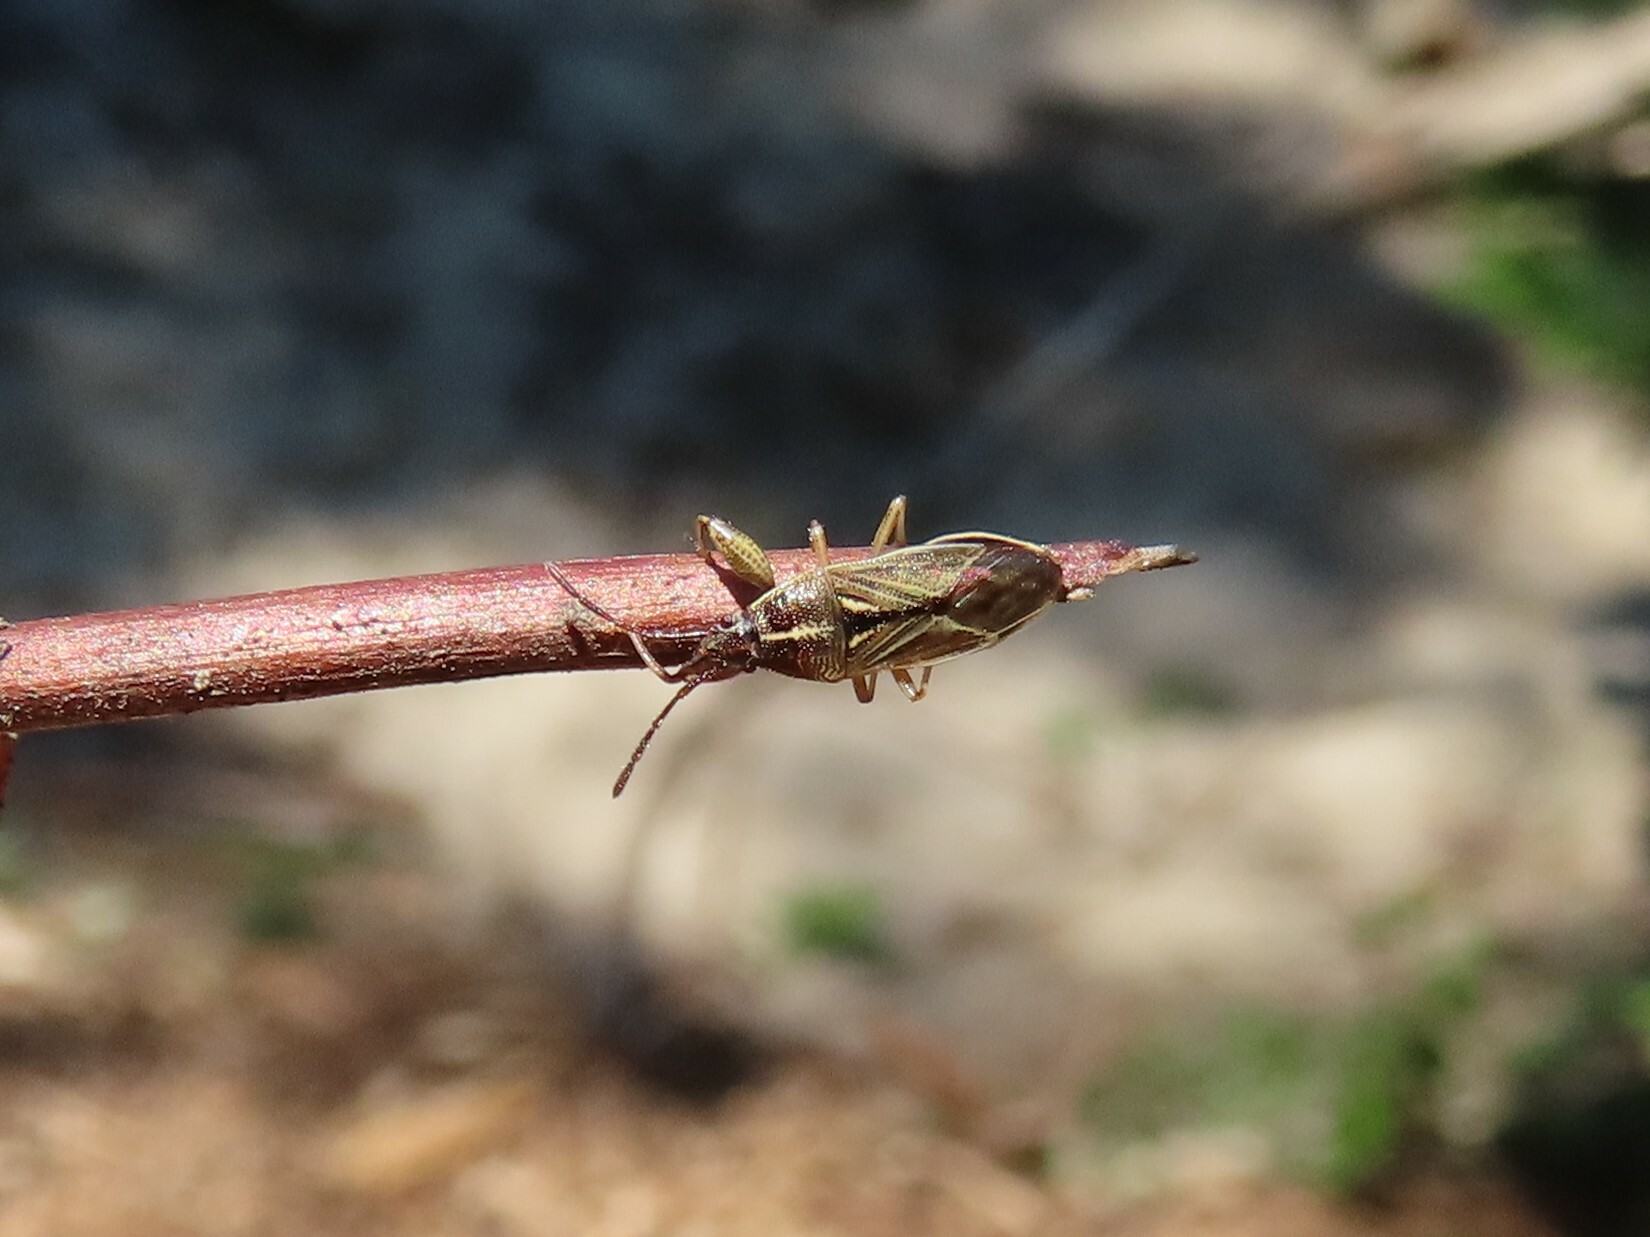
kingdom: Animalia
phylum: Arthropoda
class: Insecta
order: Hemiptera
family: Pachygronthidae
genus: Oedancala
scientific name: Oedancala dorsalis
